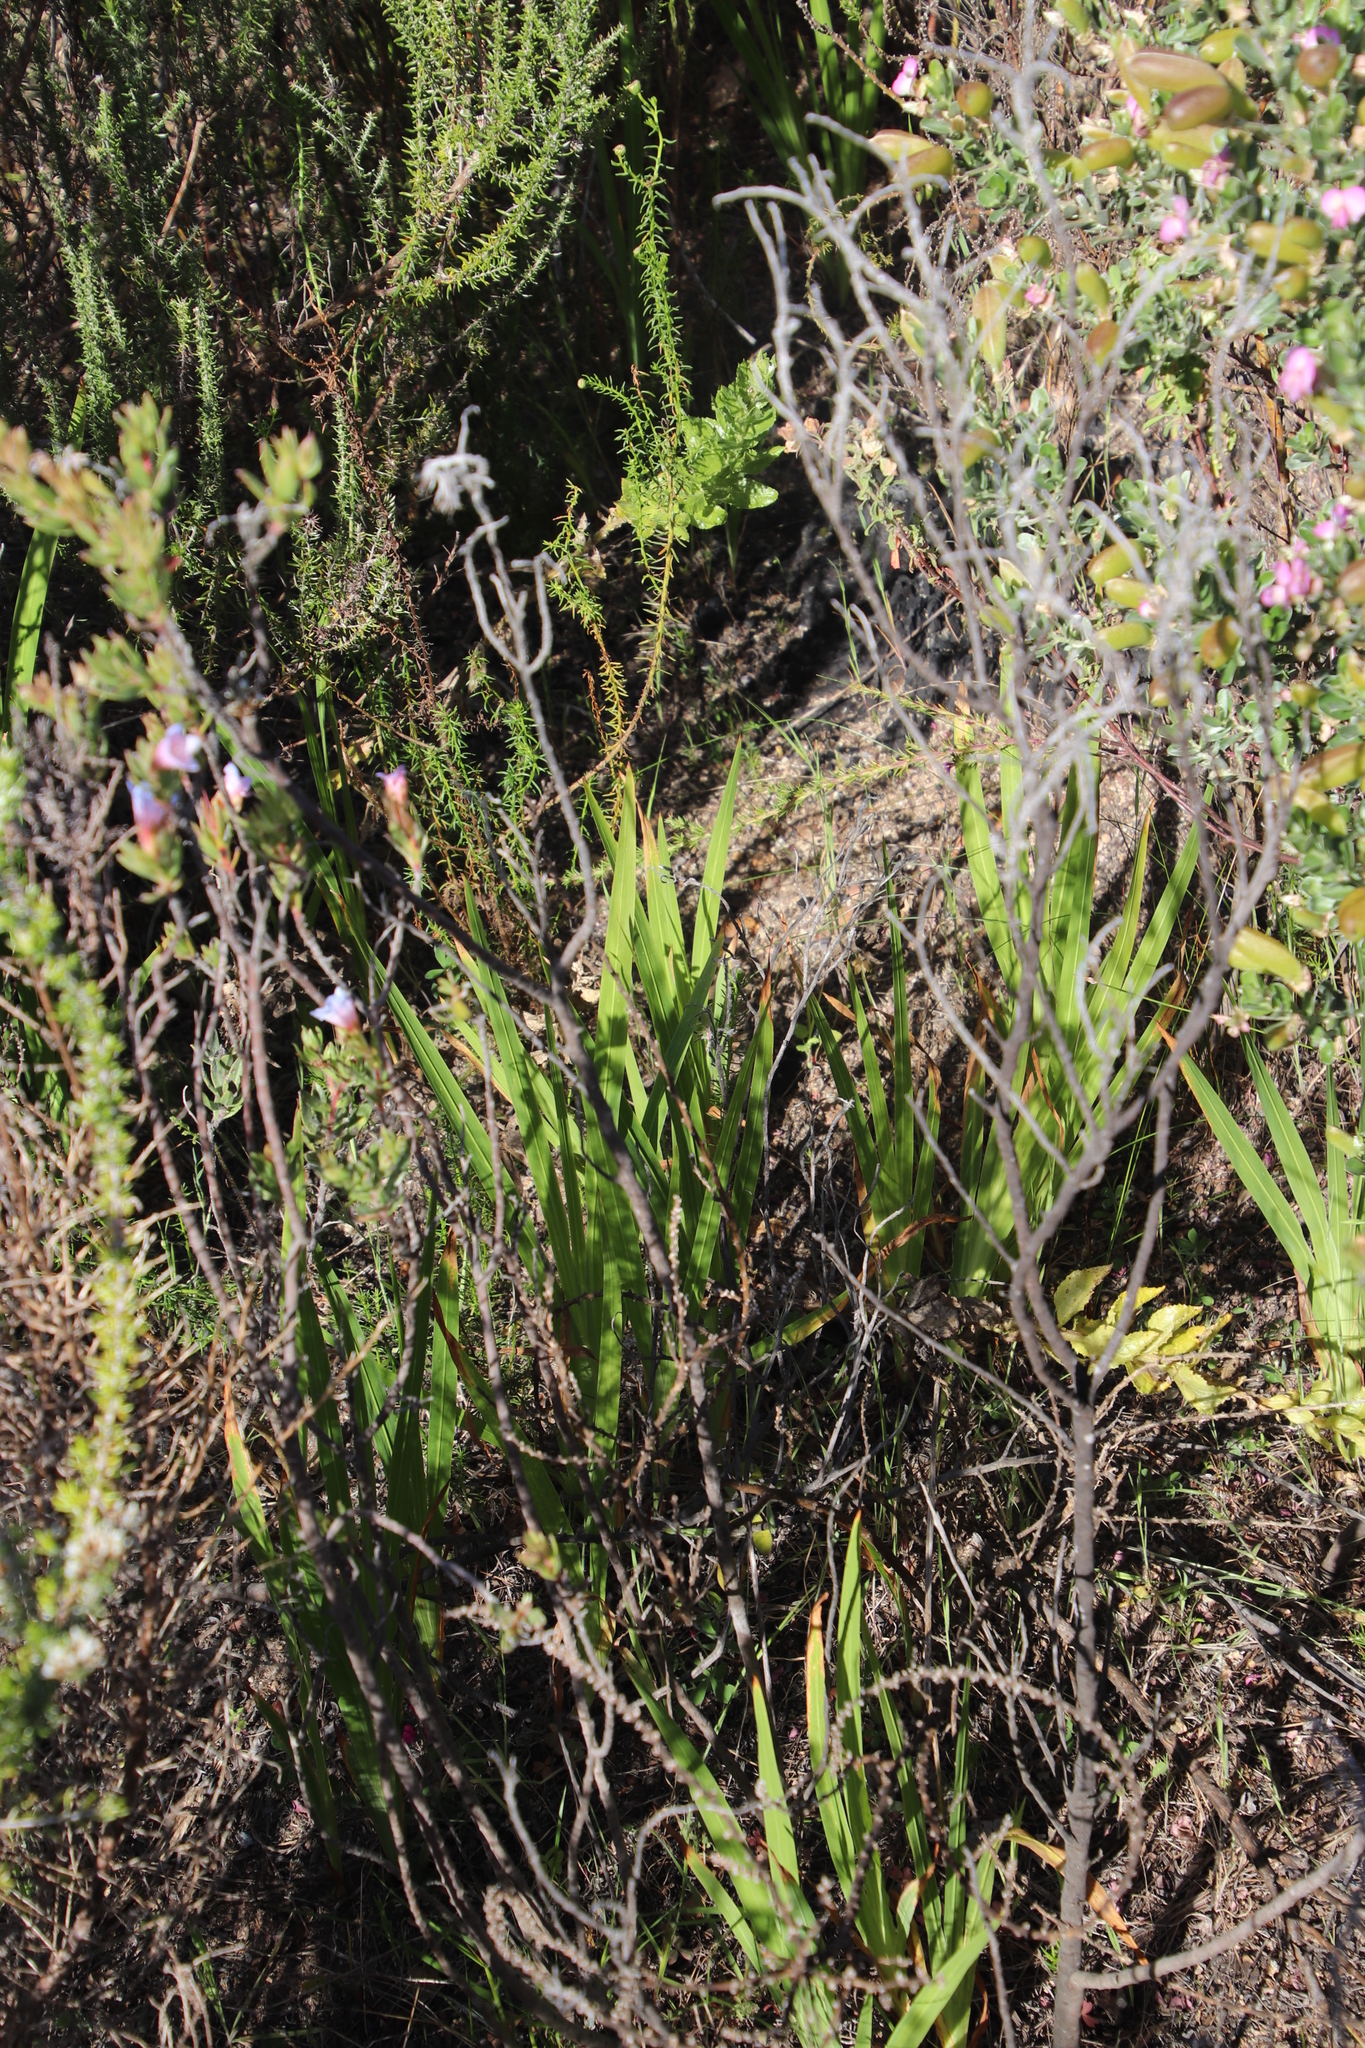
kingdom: Plantae
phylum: Tracheophyta
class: Liliopsida
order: Asparagales
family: Iridaceae
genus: Chasmanthe
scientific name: Chasmanthe aethiopica
